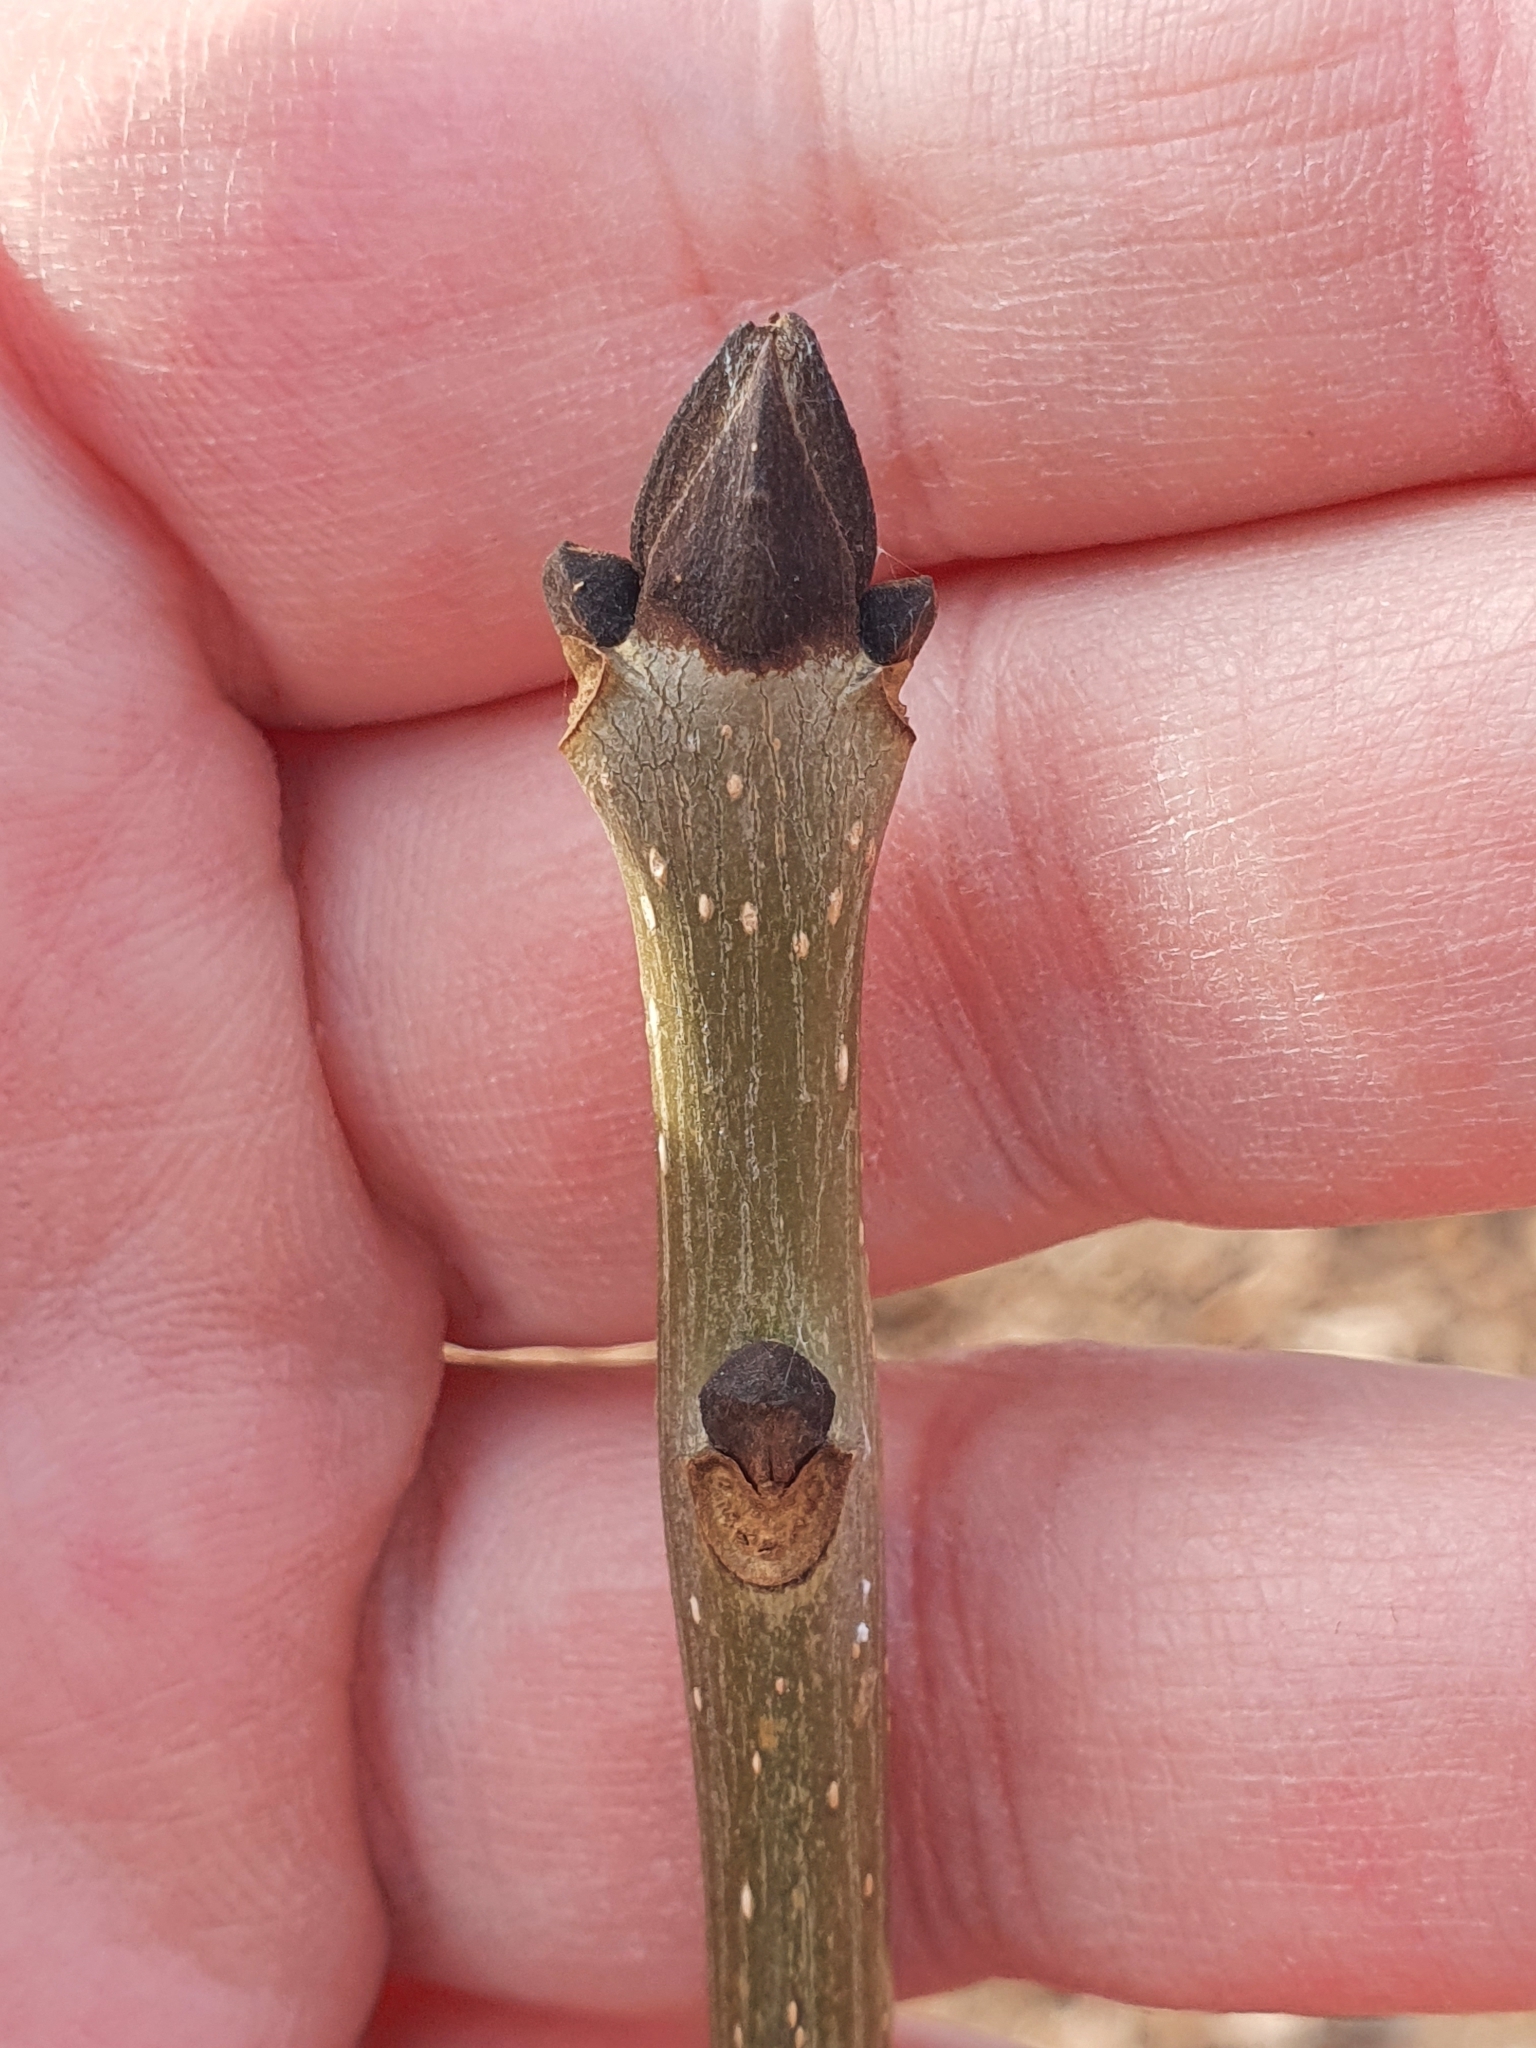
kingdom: Plantae
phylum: Tracheophyta
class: Magnoliopsida
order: Lamiales
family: Oleaceae
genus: Fraxinus
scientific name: Fraxinus excelsior
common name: European ash
